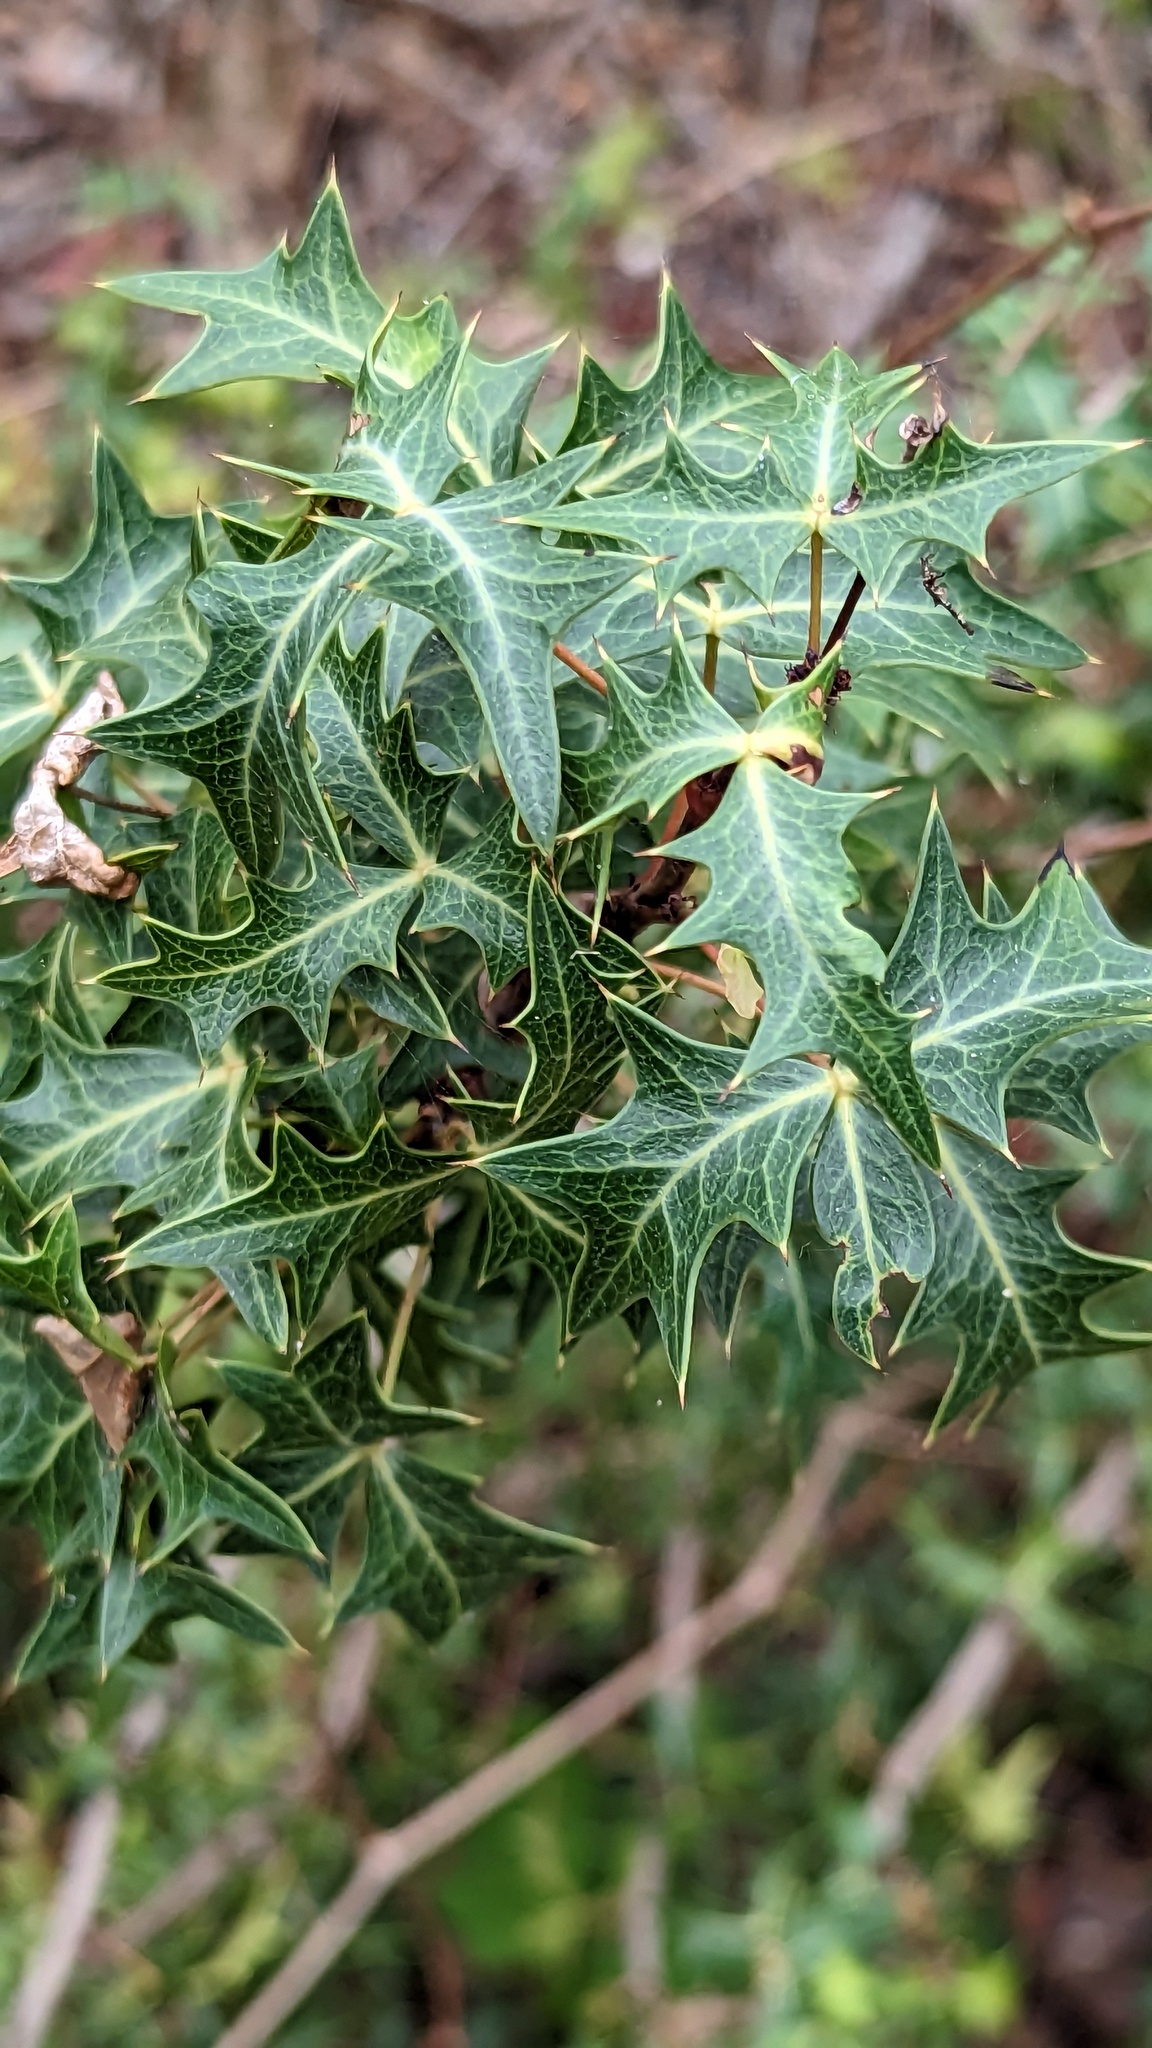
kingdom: Plantae
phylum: Tracheophyta
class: Magnoliopsida
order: Ranunculales
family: Berberidaceae
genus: Alloberberis
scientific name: Alloberberis trifoliolata
